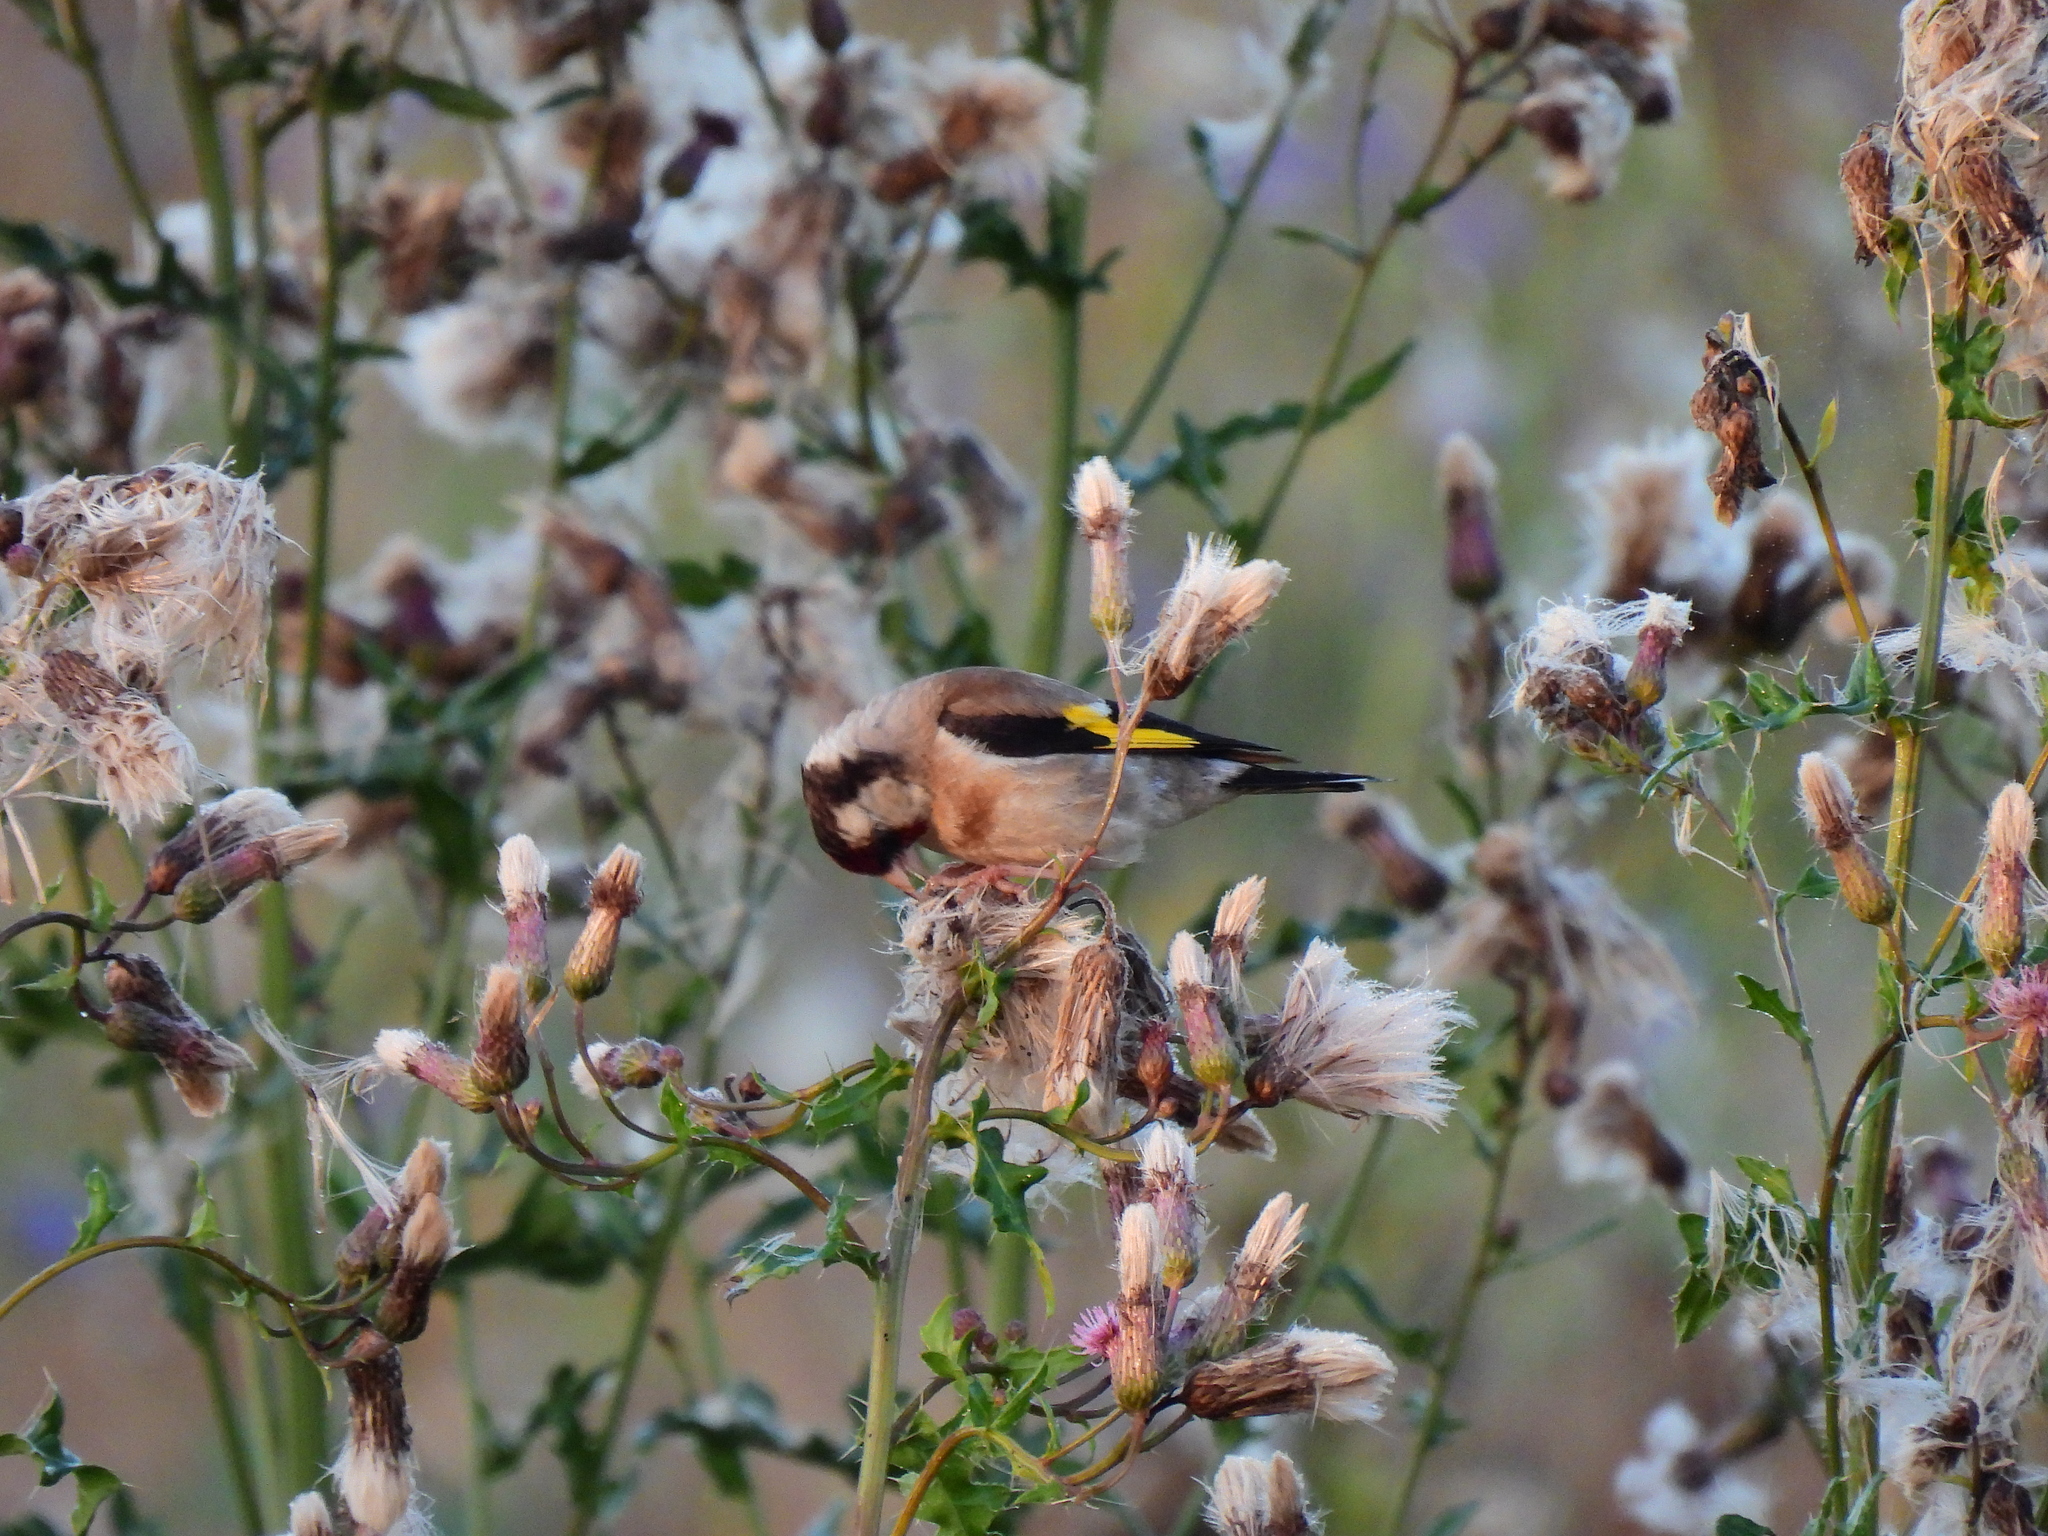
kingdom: Animalia
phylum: Chordata
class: Aves
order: Passeriformes
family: Fringillidae
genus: Carduelis
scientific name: Carduelis carduelis
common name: European goldfinch
